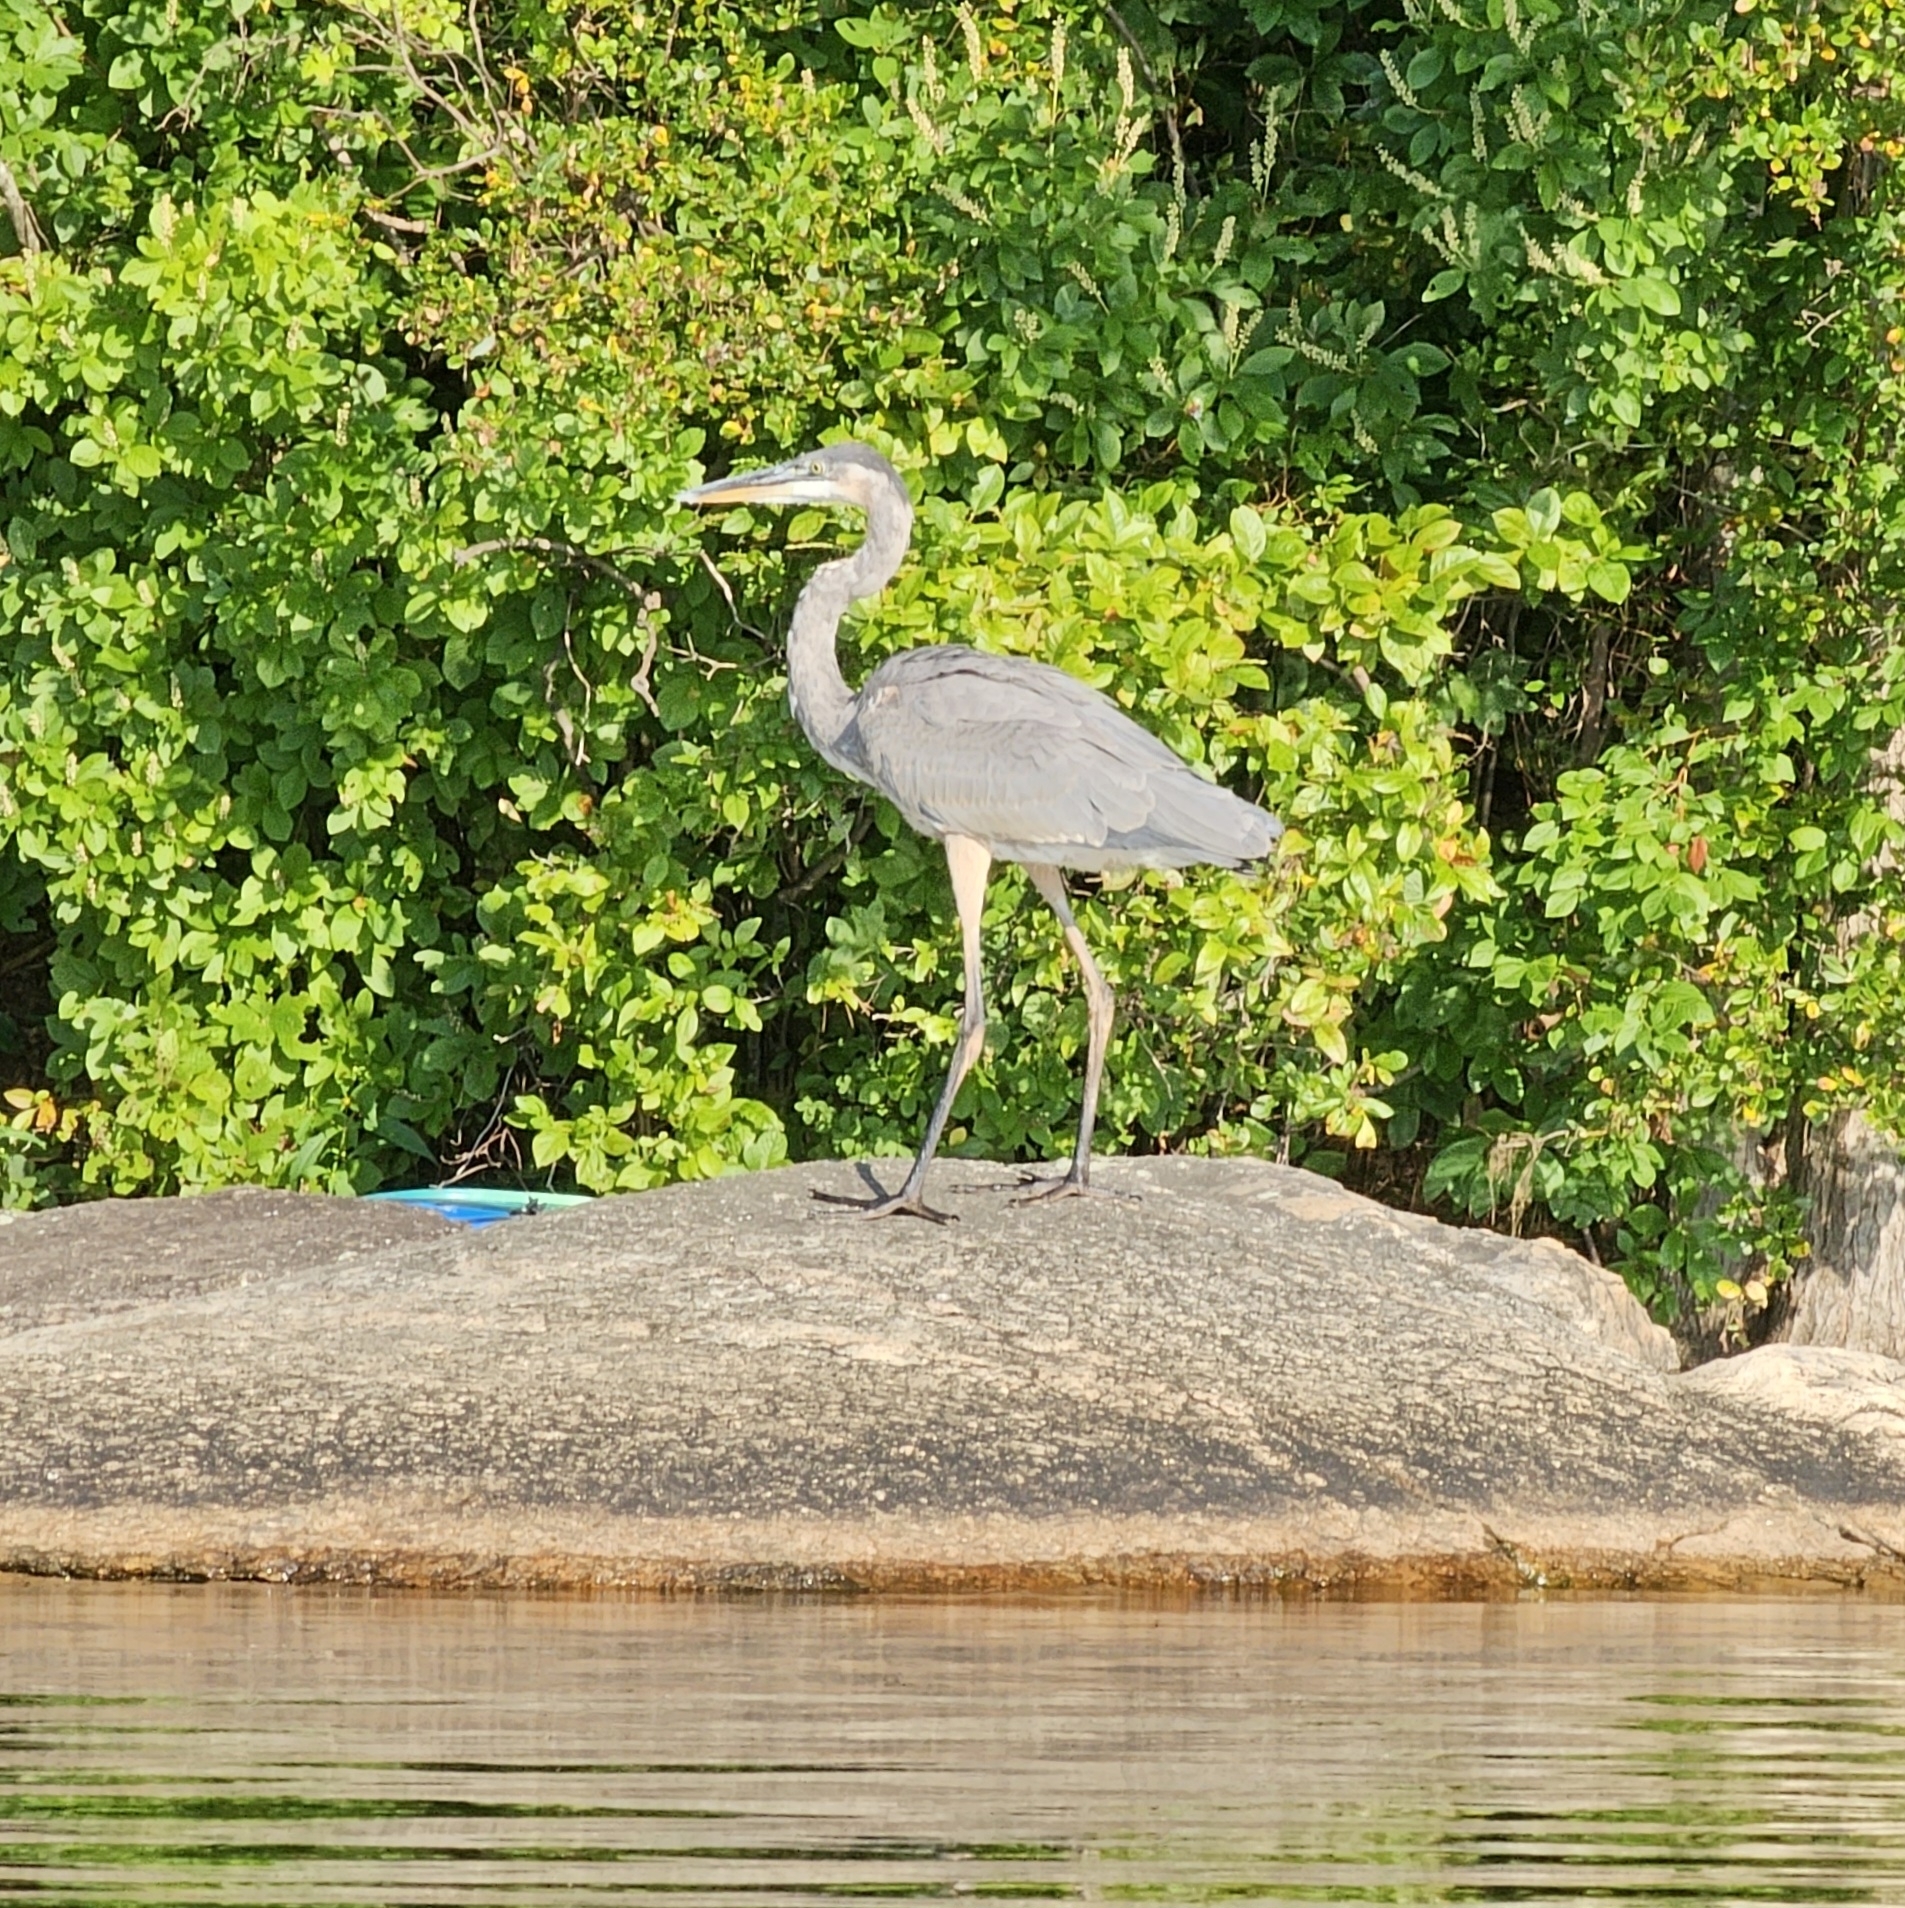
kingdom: Animalia
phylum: Chordata
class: Aves
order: Pelecaniformes
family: Ardeidae
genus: Ardea
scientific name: Ardea herodias
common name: Great blue heron
